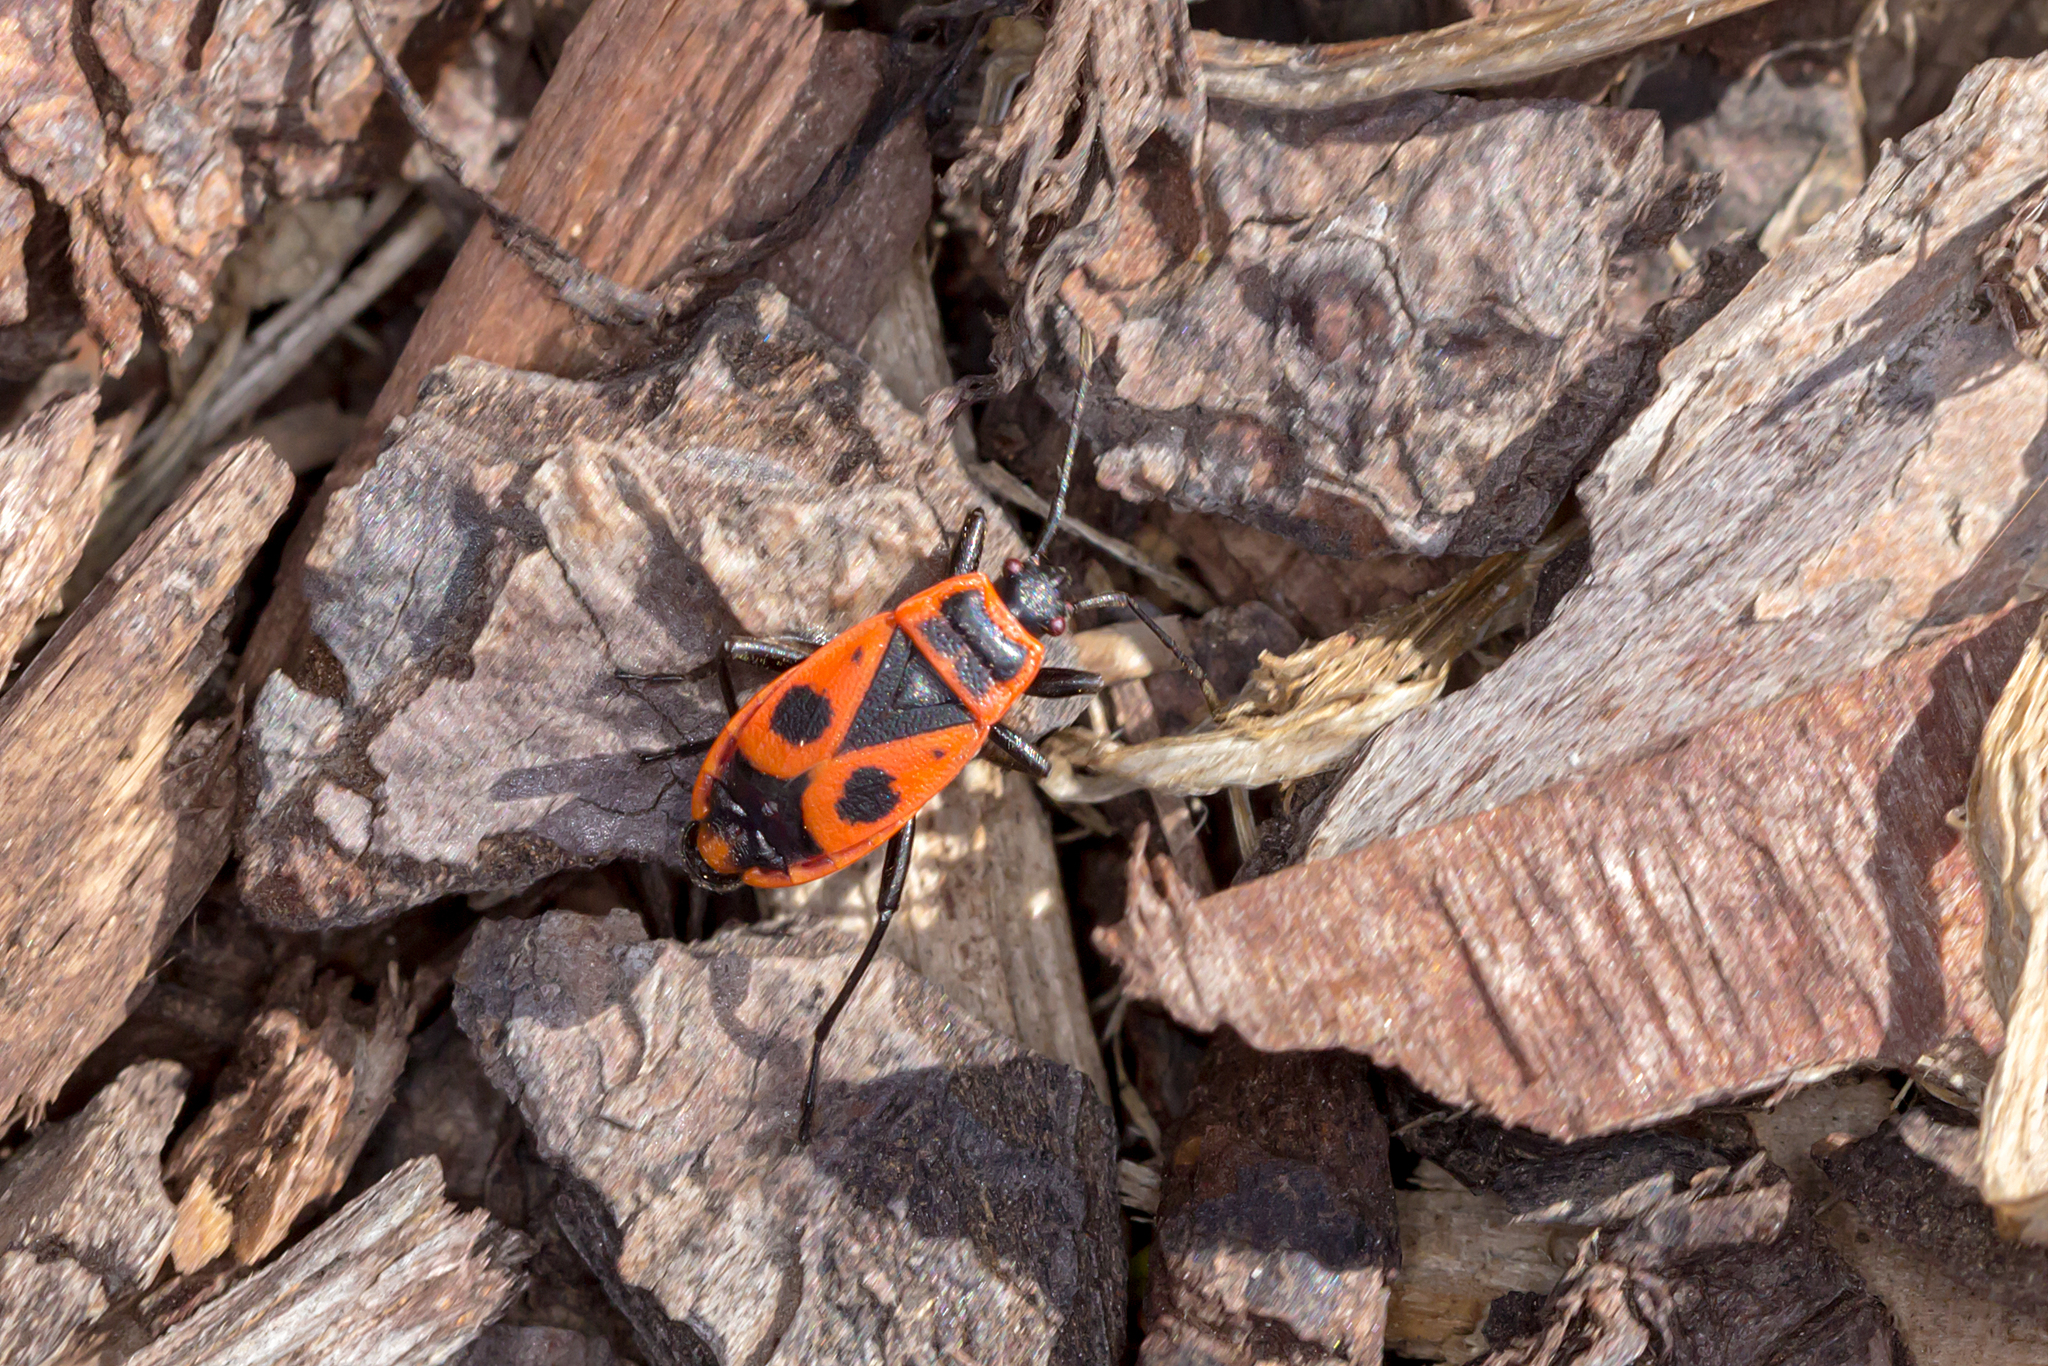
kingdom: Animalia
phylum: Arthropoda
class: Insecta
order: Hemiptera
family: Pyrrhocoridae
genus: Pyrrhocoris
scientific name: Pyrrhocoris apterus
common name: Firebug
